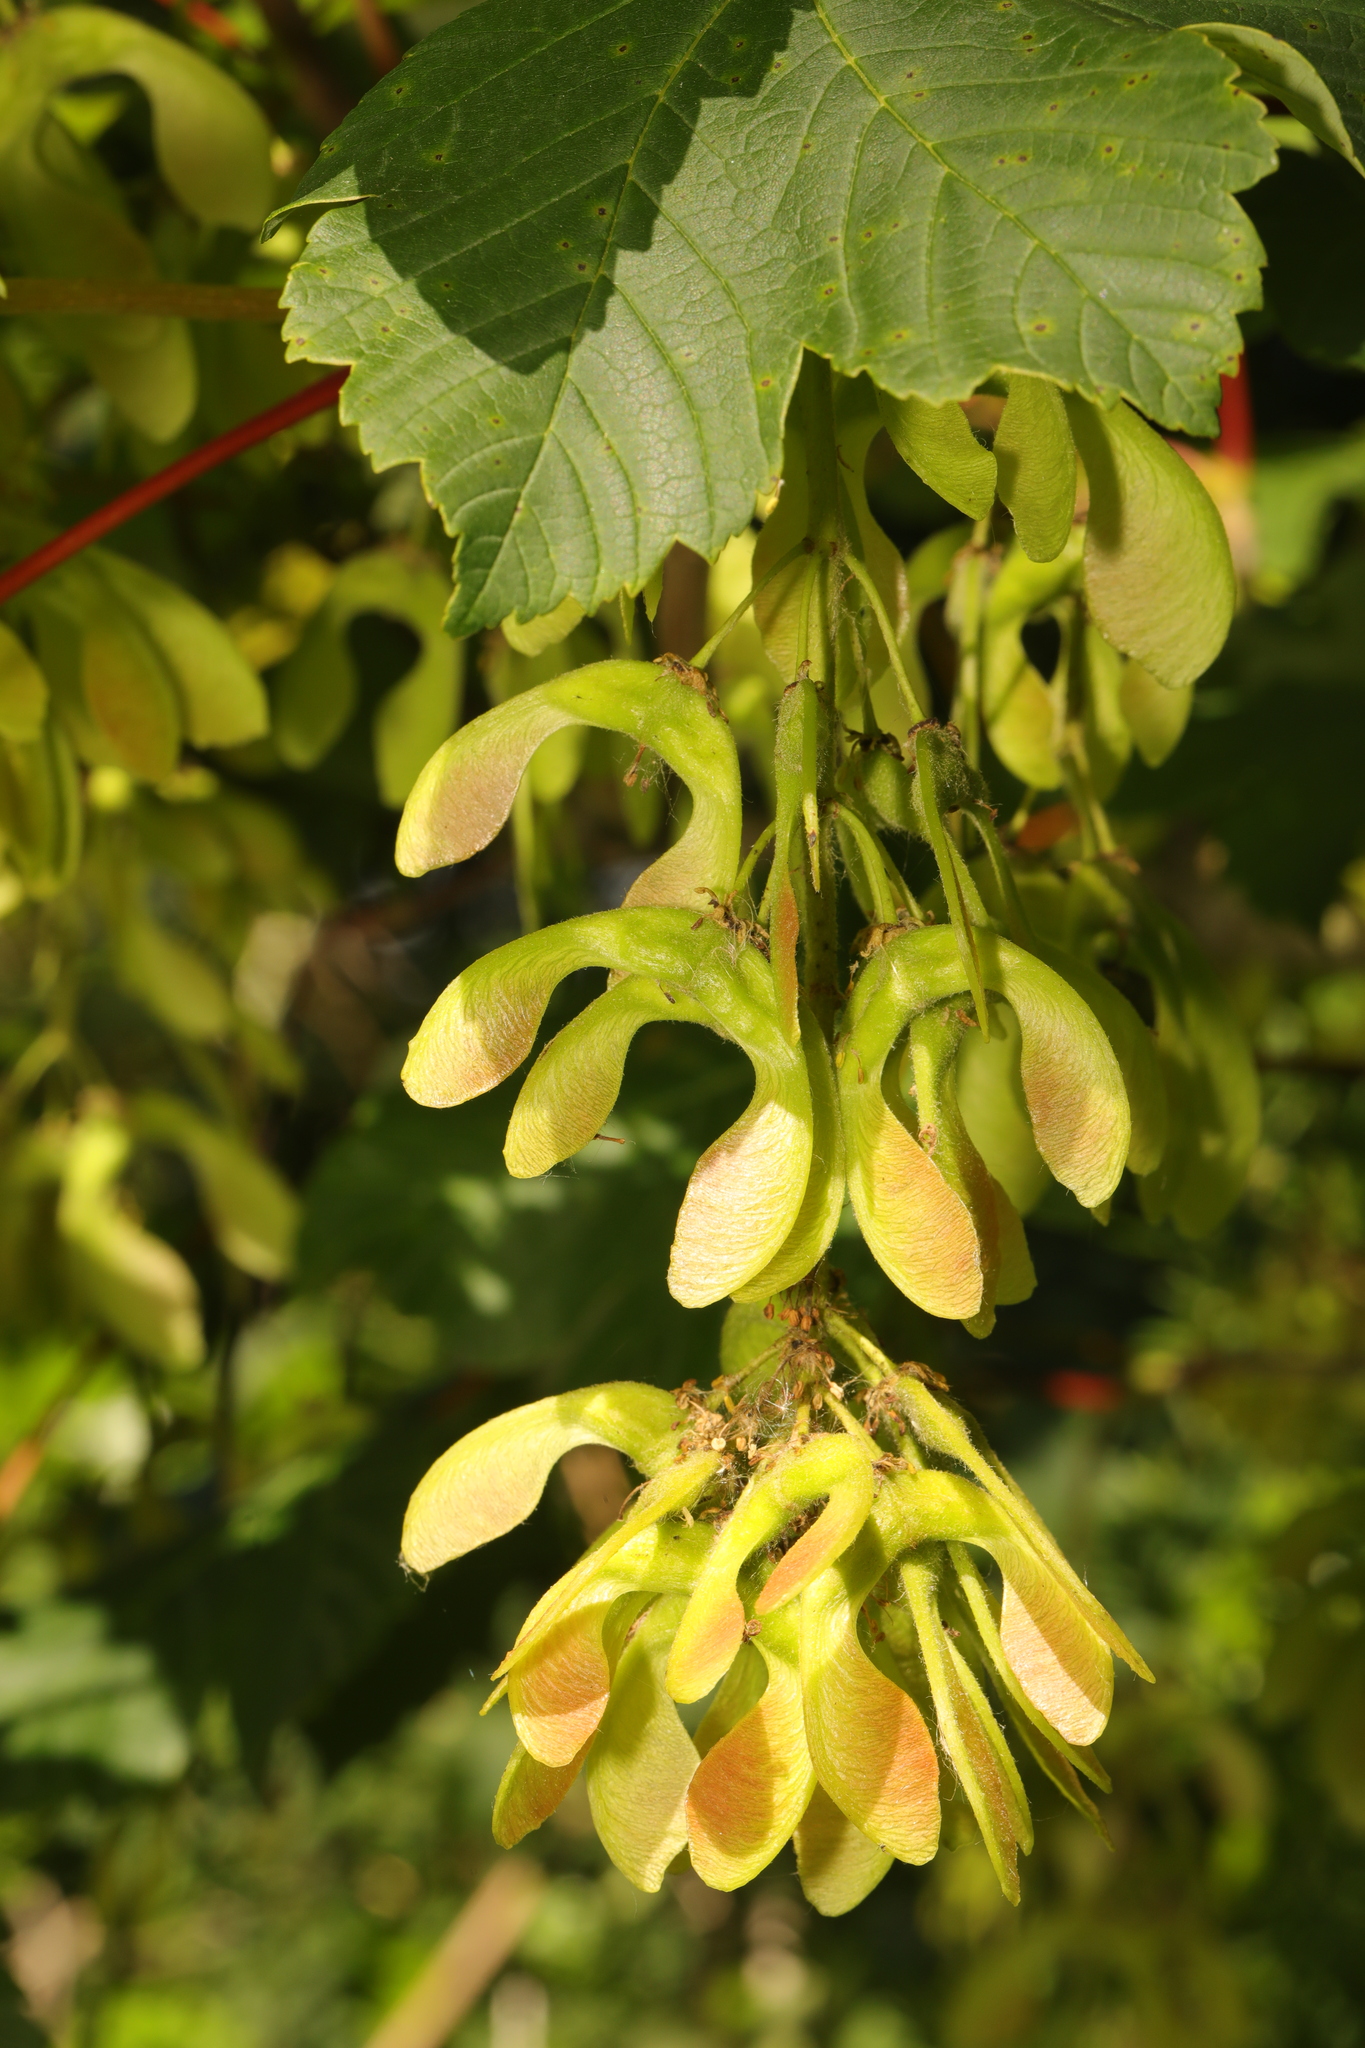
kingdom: Plantae
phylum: Tracheophyta
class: Magnoliopsida
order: Sapindales
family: Sapindaceae
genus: Acer
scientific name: Acer pseudoplatanus
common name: Sycamore
